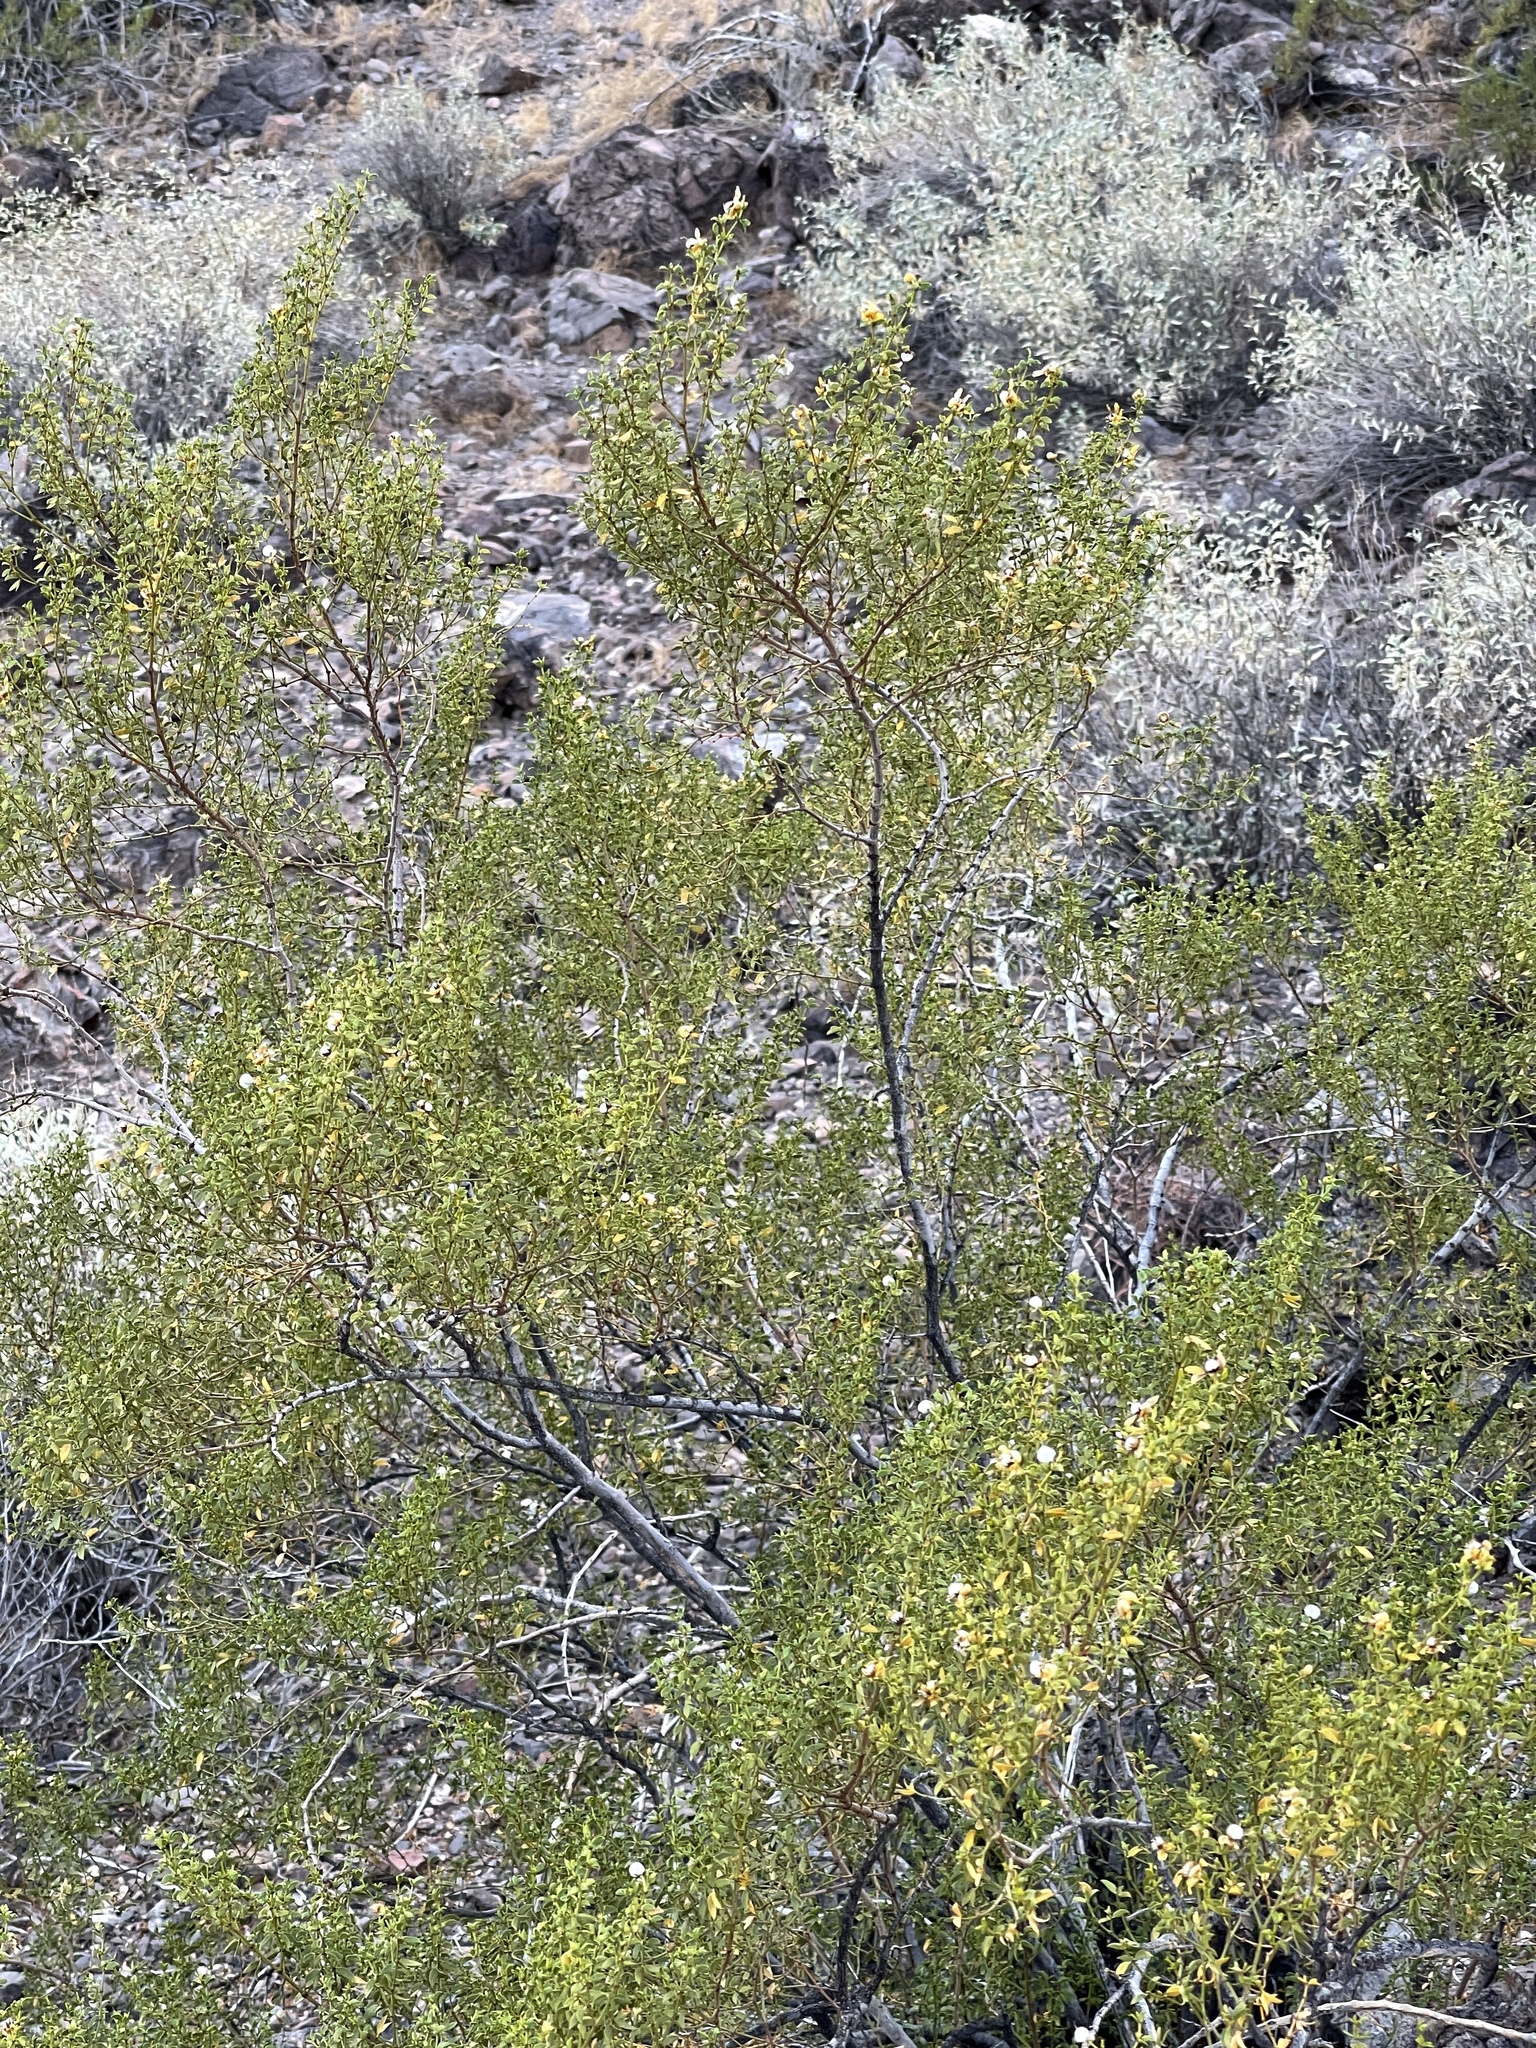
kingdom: Plantae
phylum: Tracheophyta
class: Magnoliopsida
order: Zygophyllales
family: Zygophyllaceae
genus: Larrea
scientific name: Larrea tridentata
